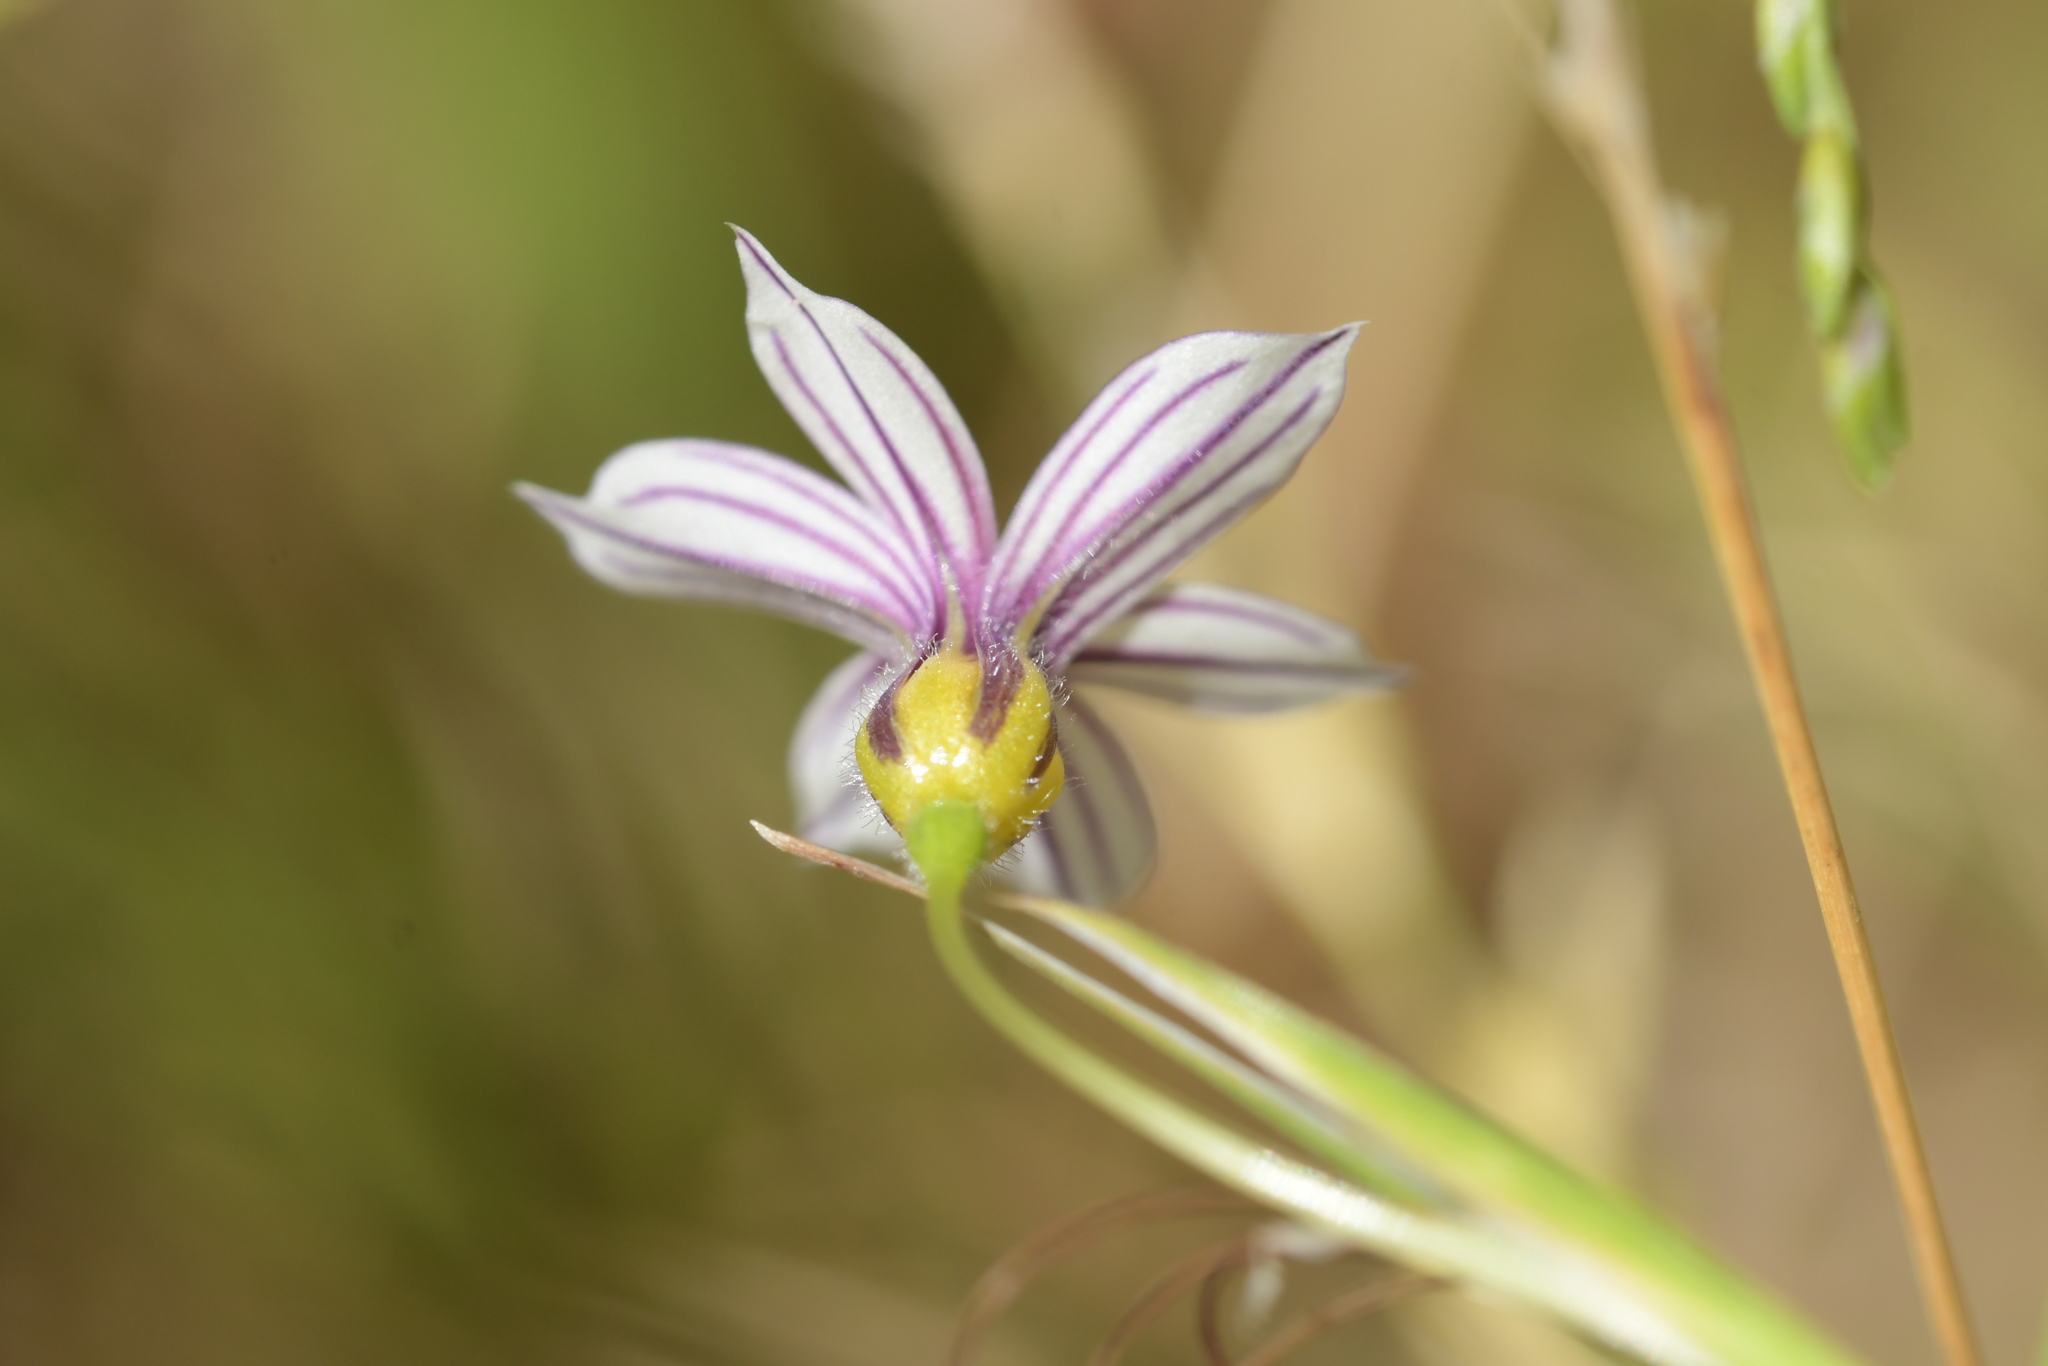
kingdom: Plantae
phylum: Tracheophyta
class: Liliopsida
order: Asparagales
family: Iridaceae
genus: Sisyrinchium
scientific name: Sisyrinchium micranthum
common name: Bermuda pigroot
